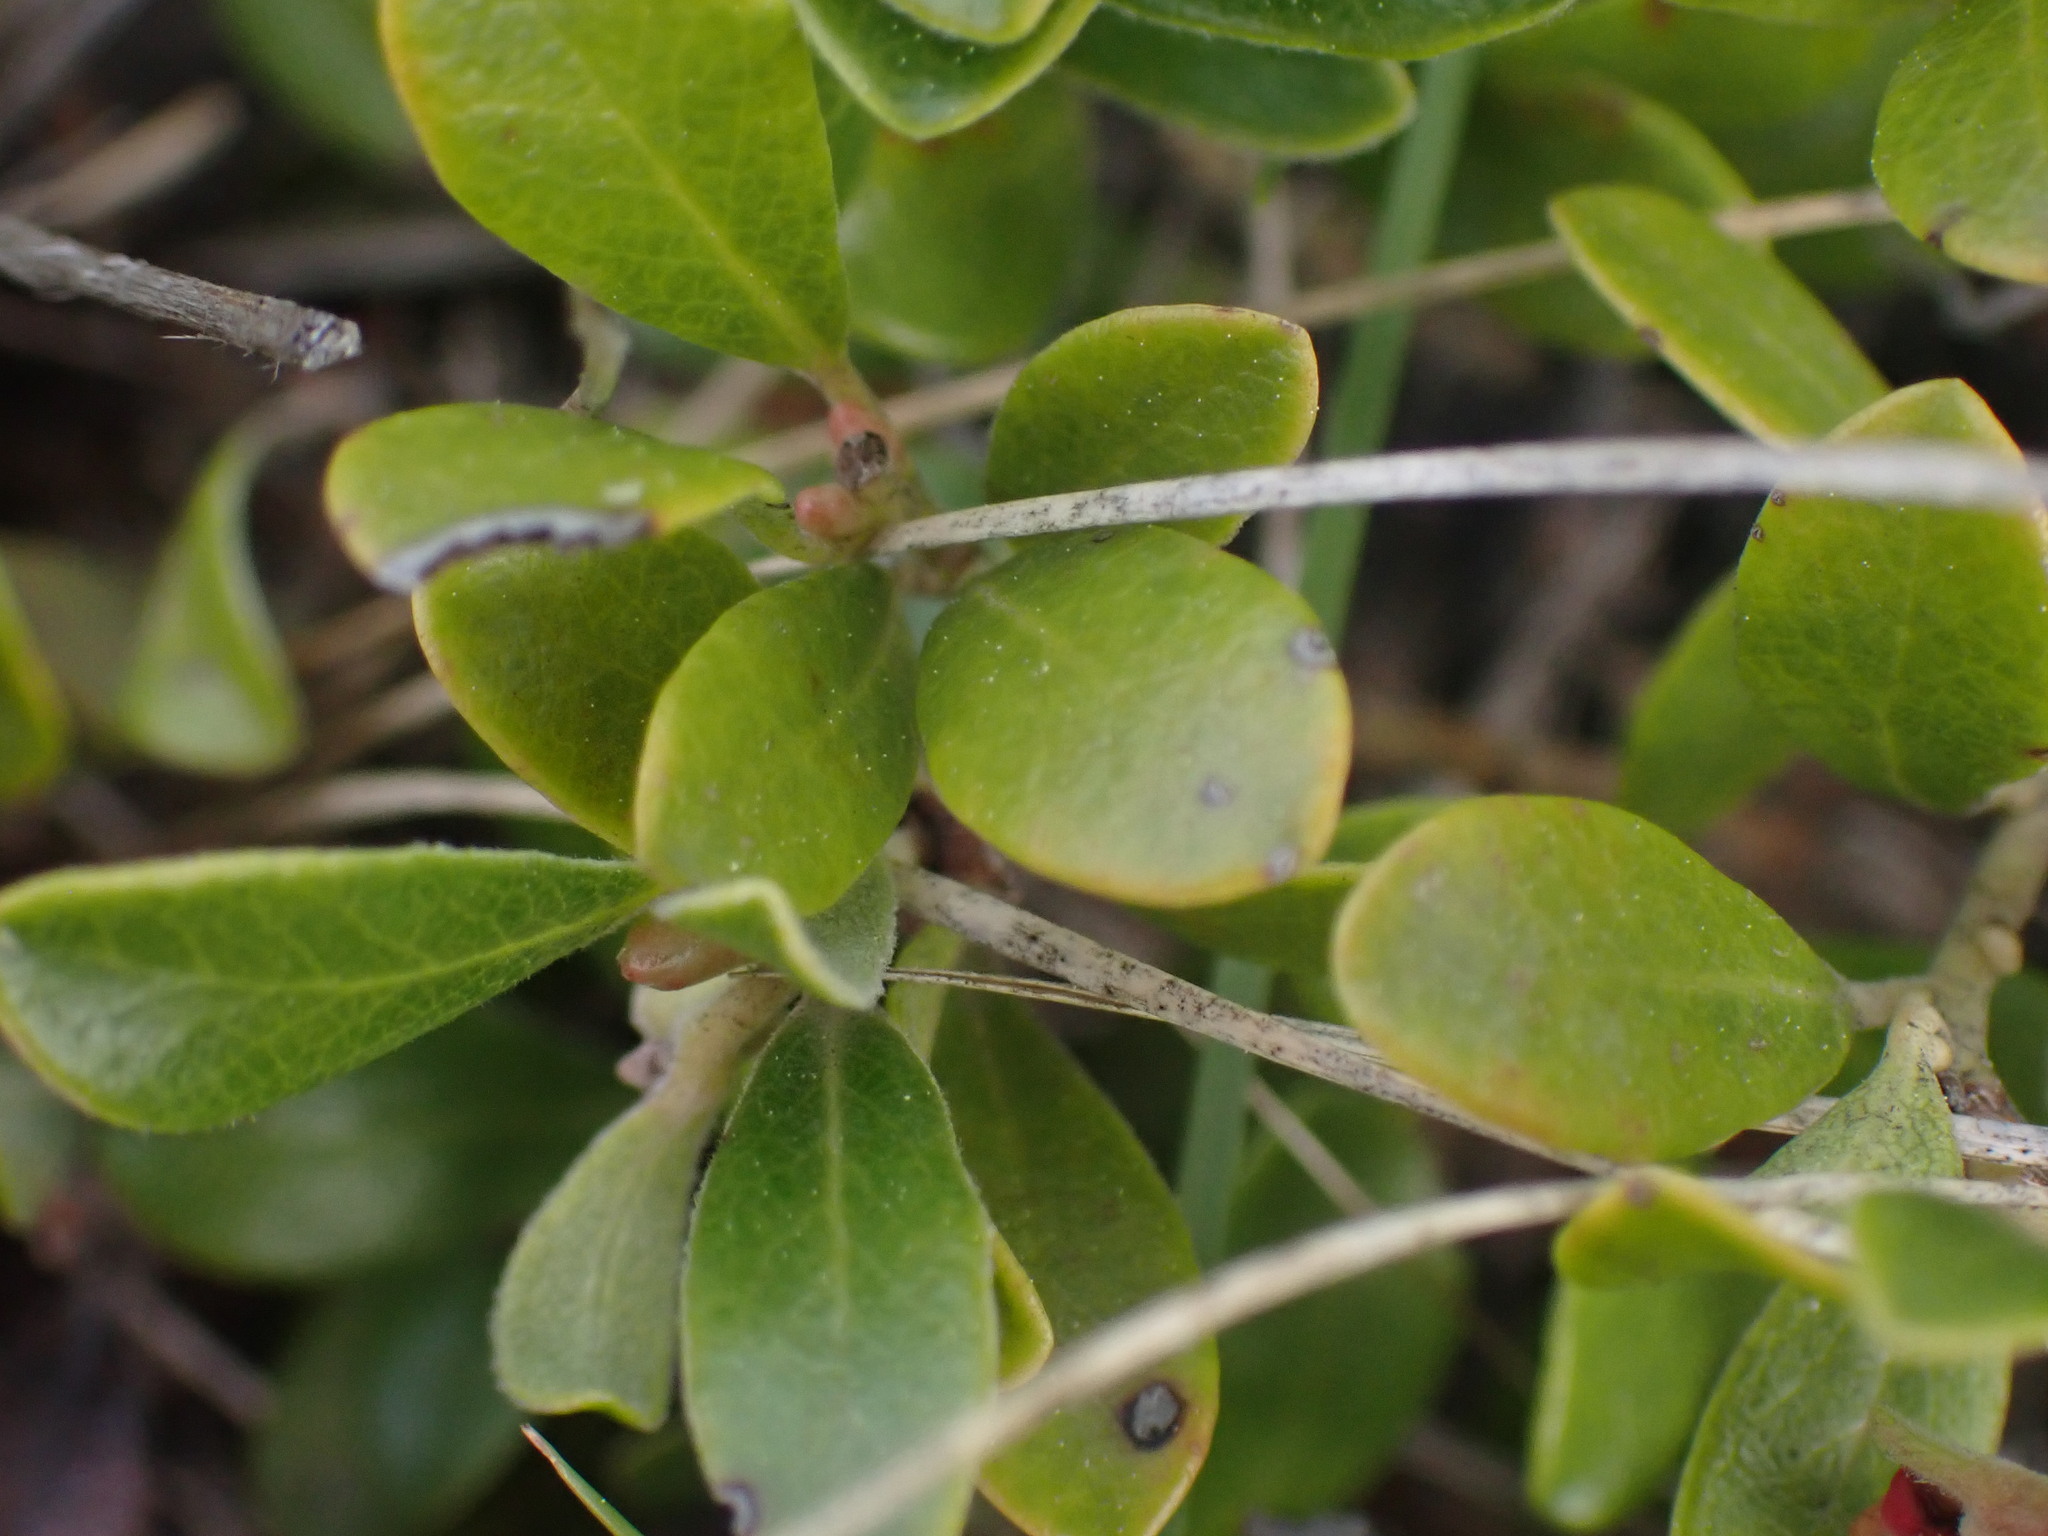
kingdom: Plantae
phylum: Tracheophyta
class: Magnoliopsida
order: Ericales
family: Ericaceae
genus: Arctostaphylos
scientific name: Arctostaphylos uva-ursi
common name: Bearberry
